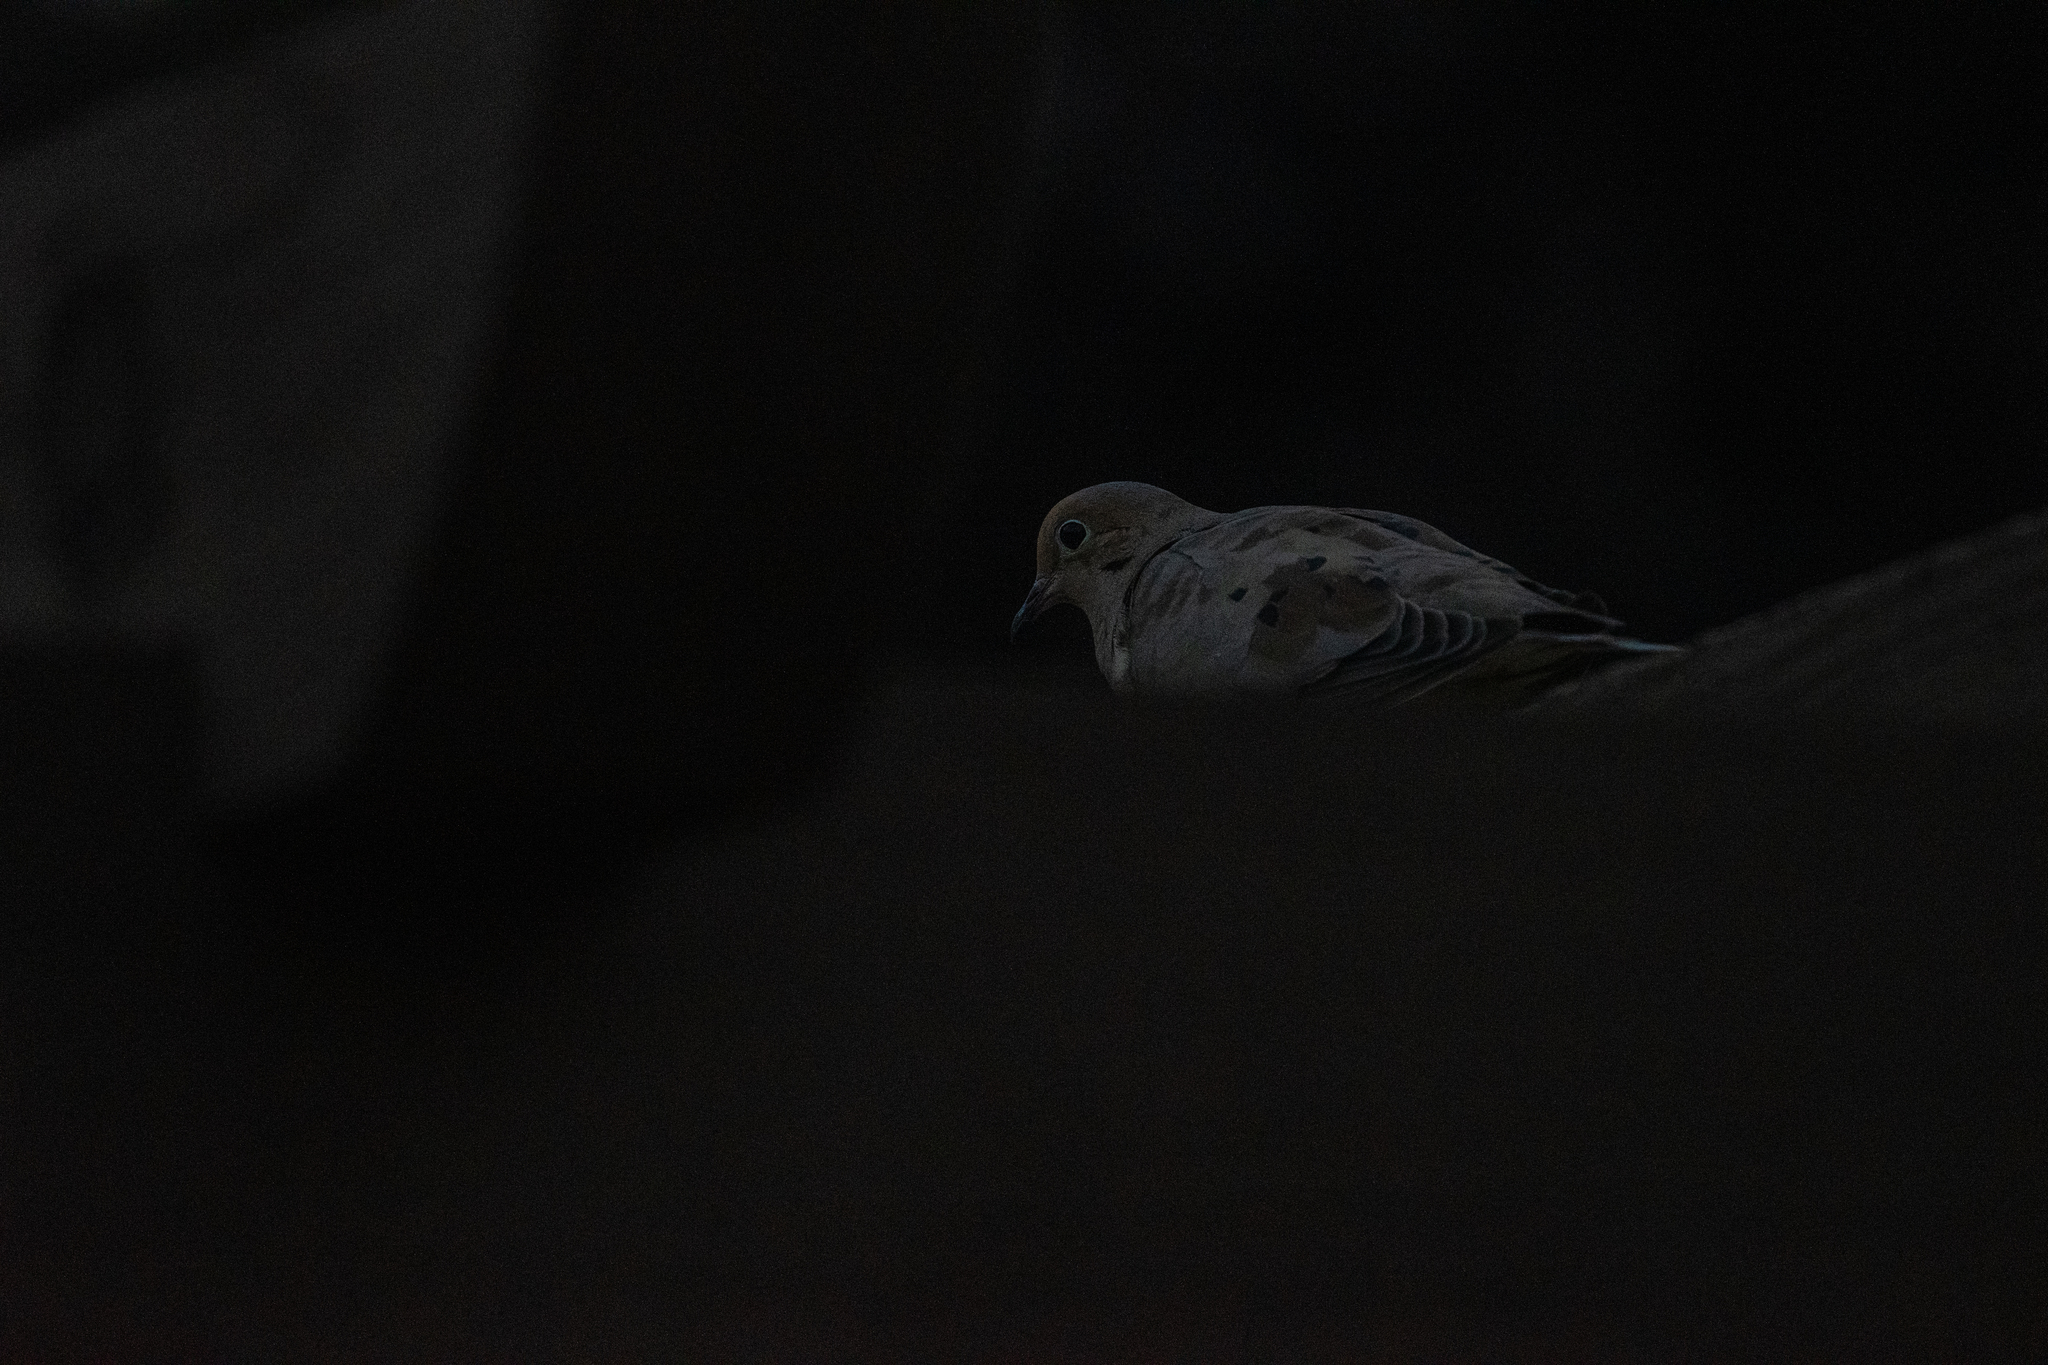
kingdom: Animalia
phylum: Chordata
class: Aves
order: Columbiformes
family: Columbidae
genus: Zenaida
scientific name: Zenaida macroura
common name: Mourning dove
